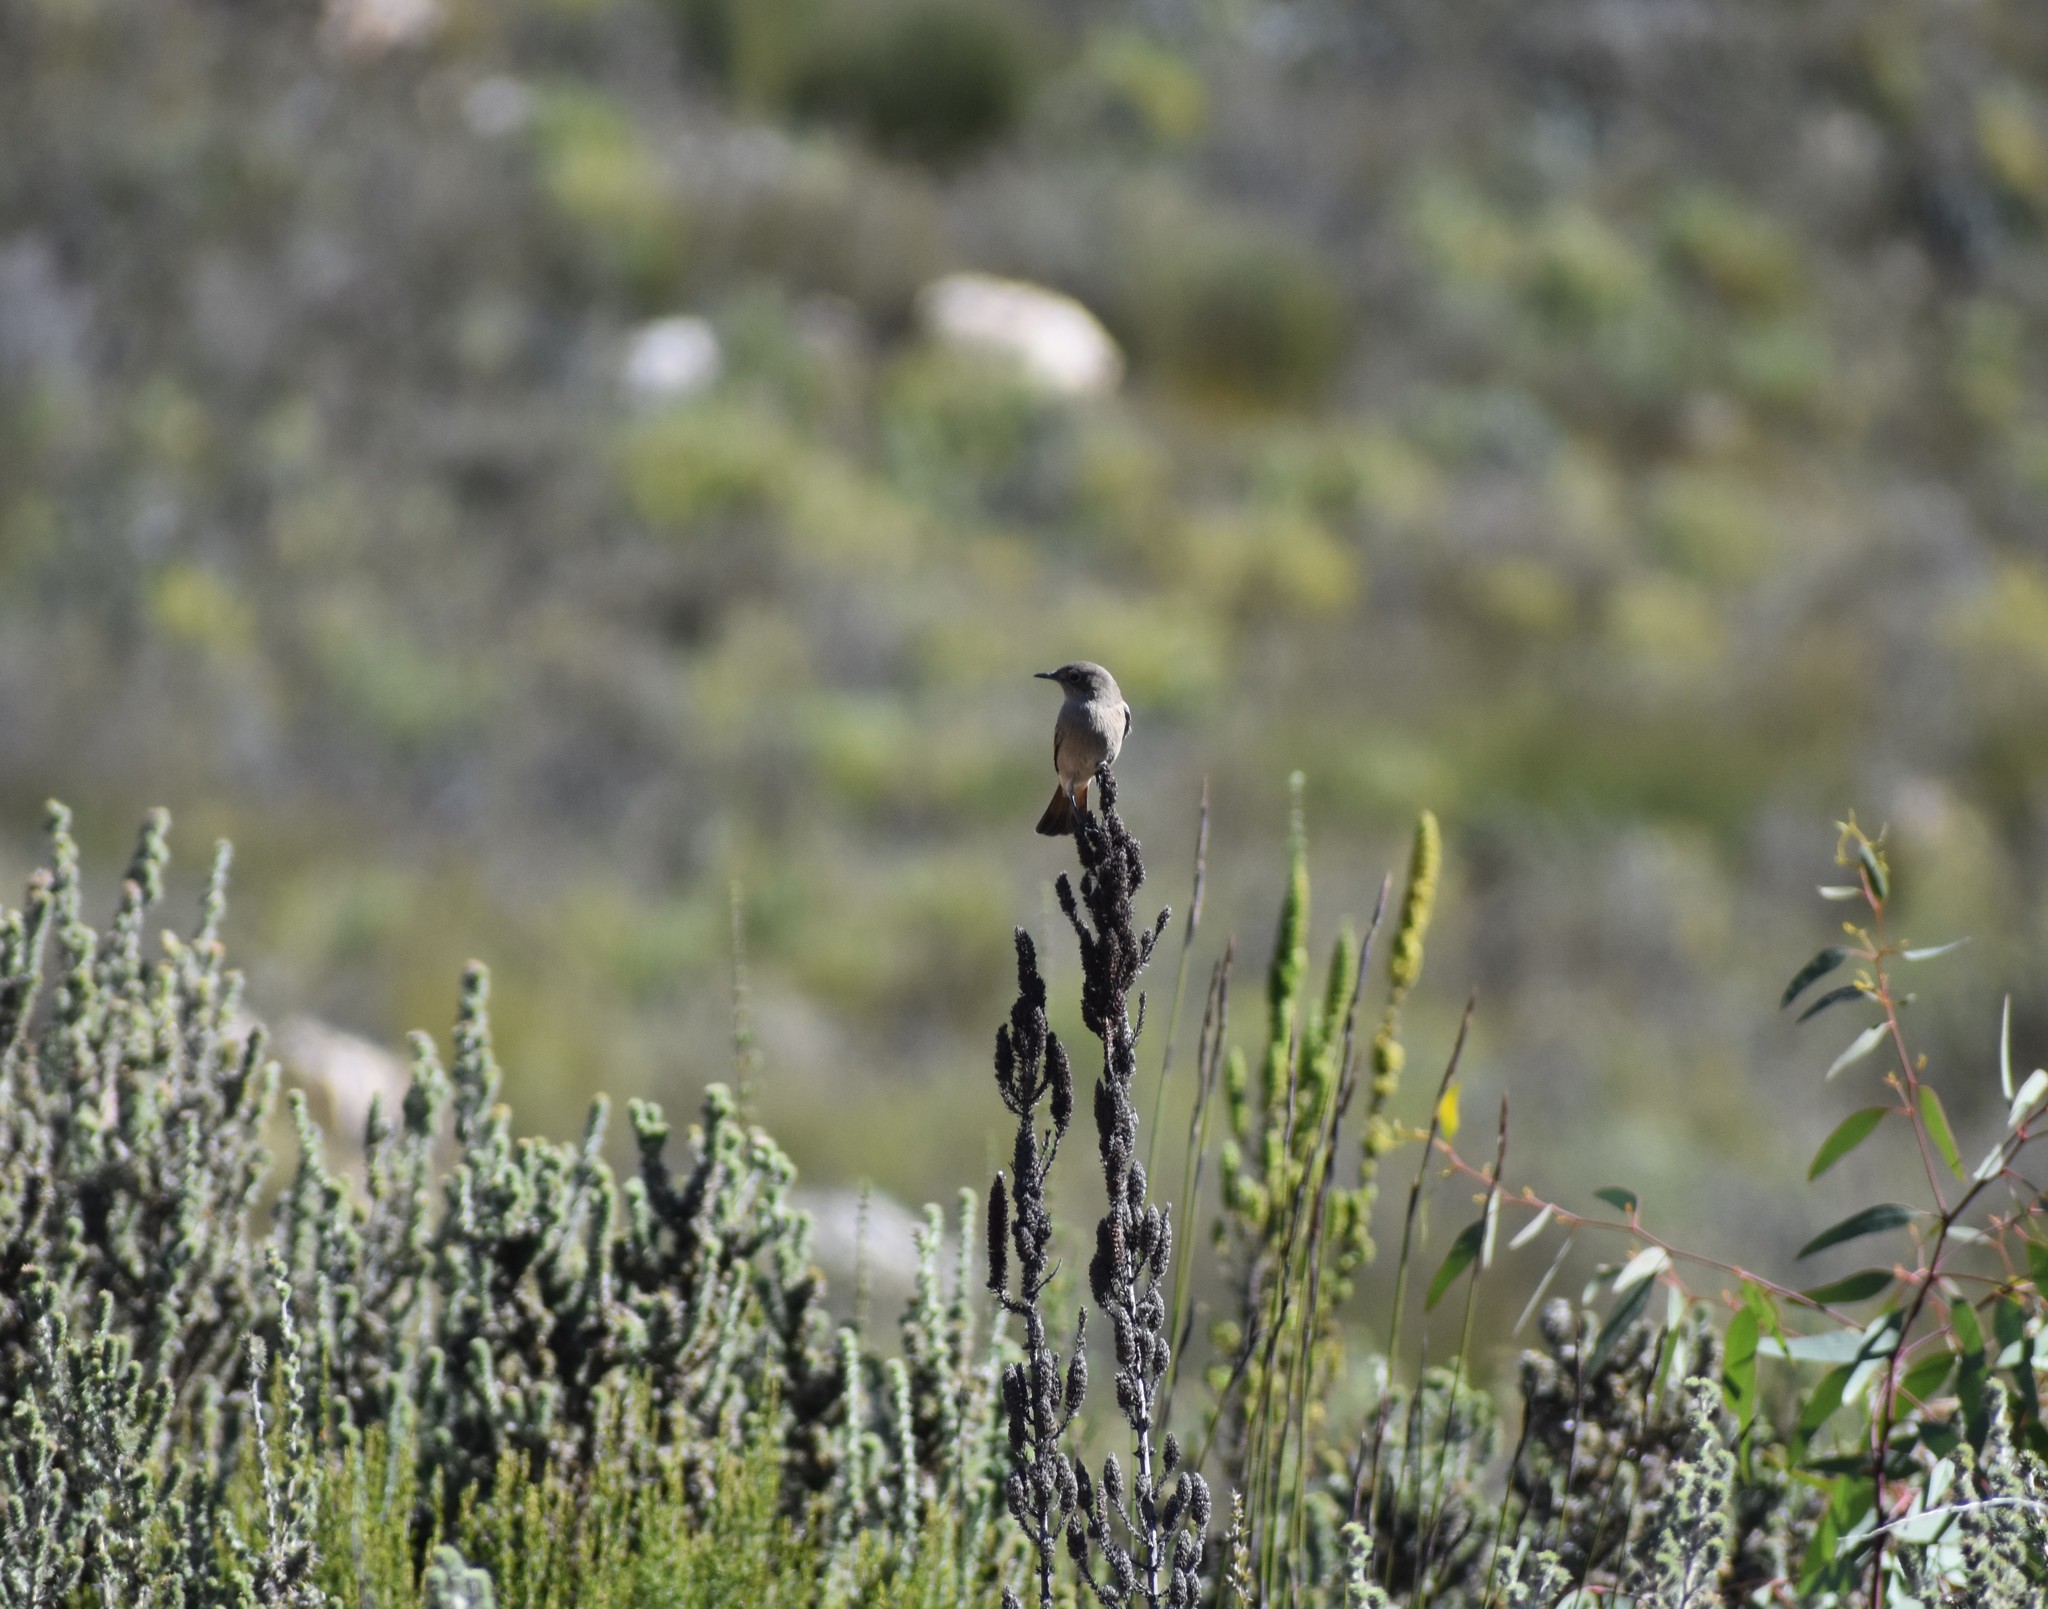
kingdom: Animalia
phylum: Chordata
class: Aves
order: Passeriformes
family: Muscicapidae
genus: Oenanthe
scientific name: Oenanthe familiaris
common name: Familiar chat
